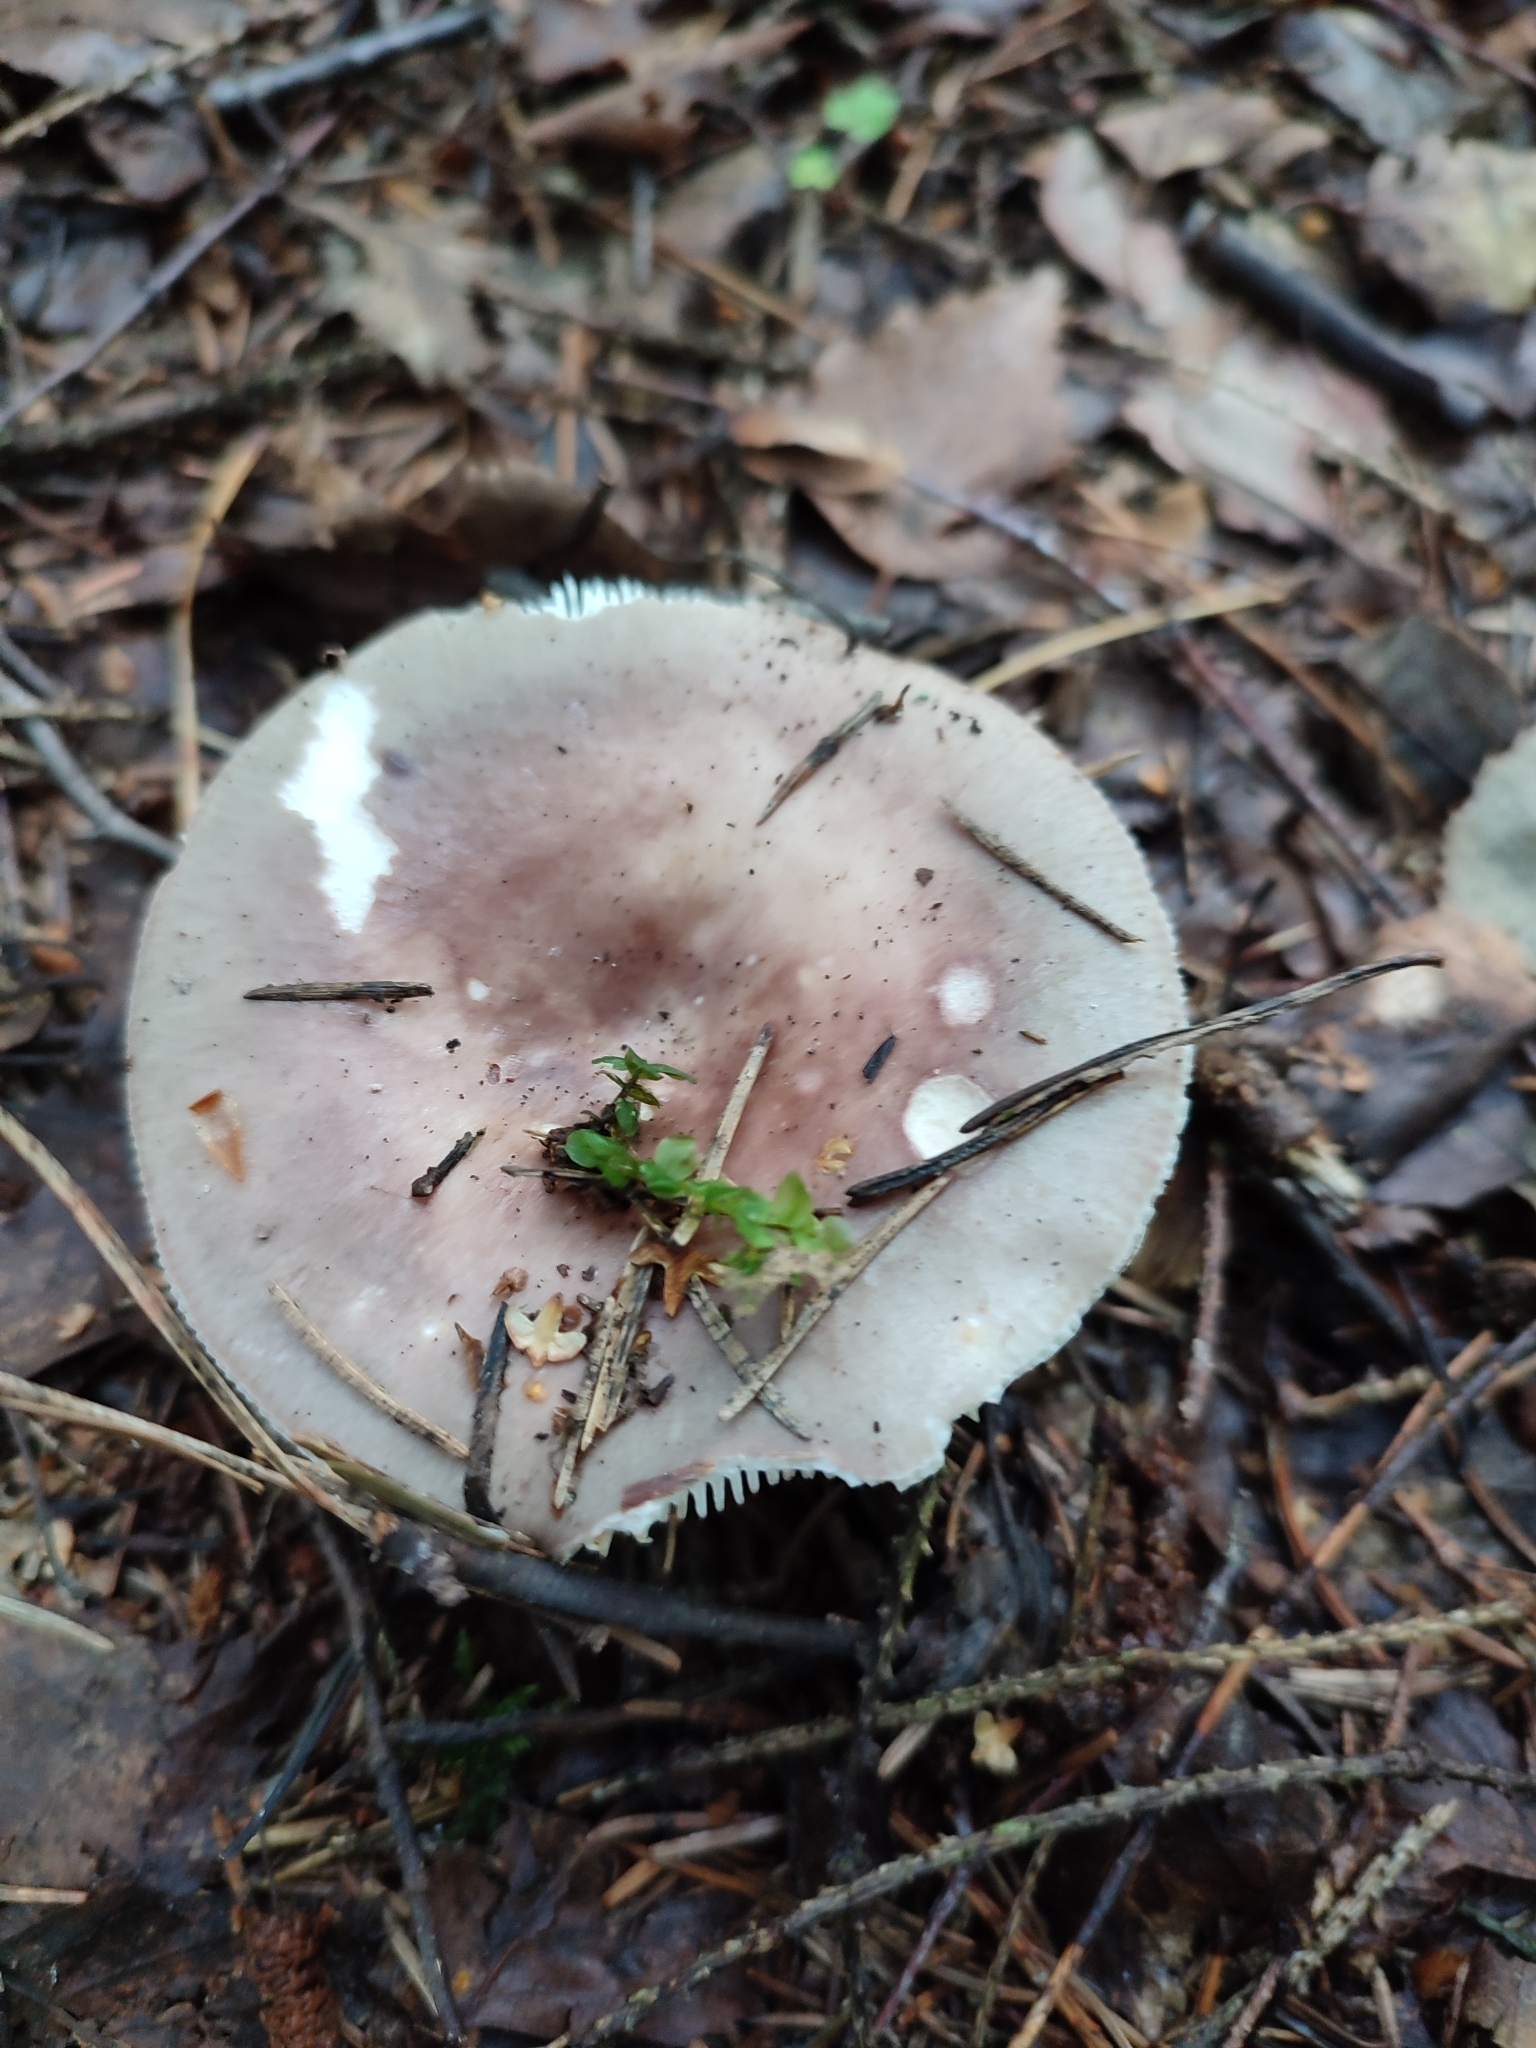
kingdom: Fungi
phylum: Basidiomycota
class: Agaricomycetes
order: Russulales
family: Russulaceae
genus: Russula
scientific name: Russula vesca
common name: Bare-toothed russula
